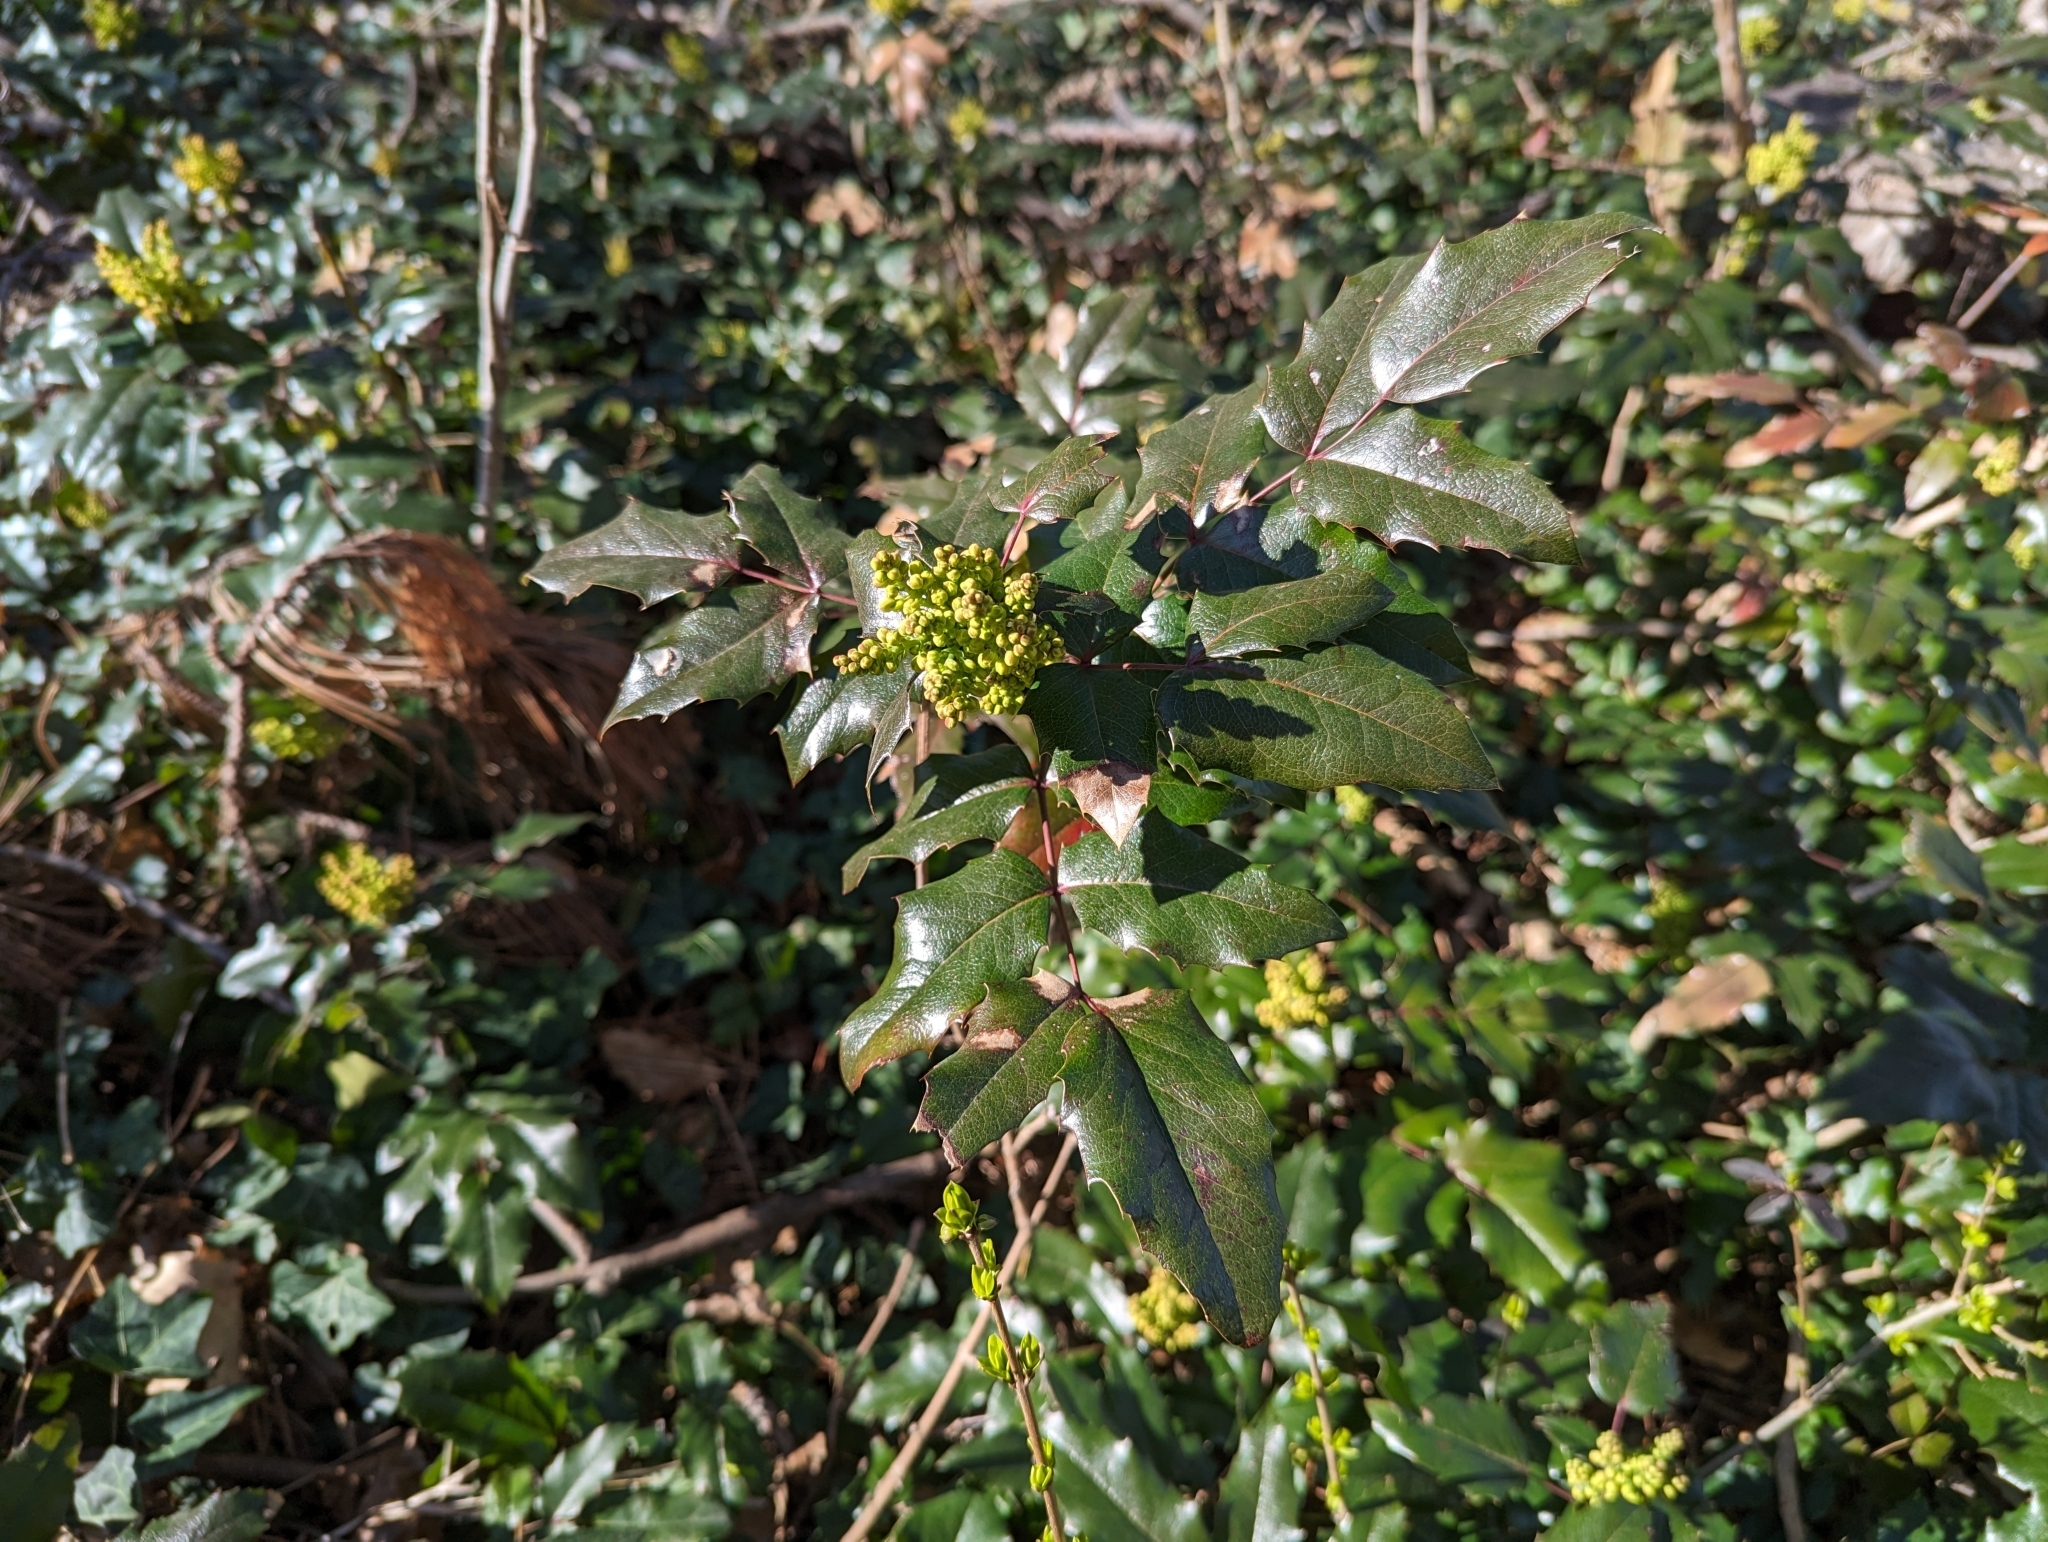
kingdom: Plantae
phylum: Tracheophyta
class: Magnoliopsida
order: Ranunculales
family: Berberidaceae
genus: Mahonia
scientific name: Mahonia aquifolium
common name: Oregon-grape
